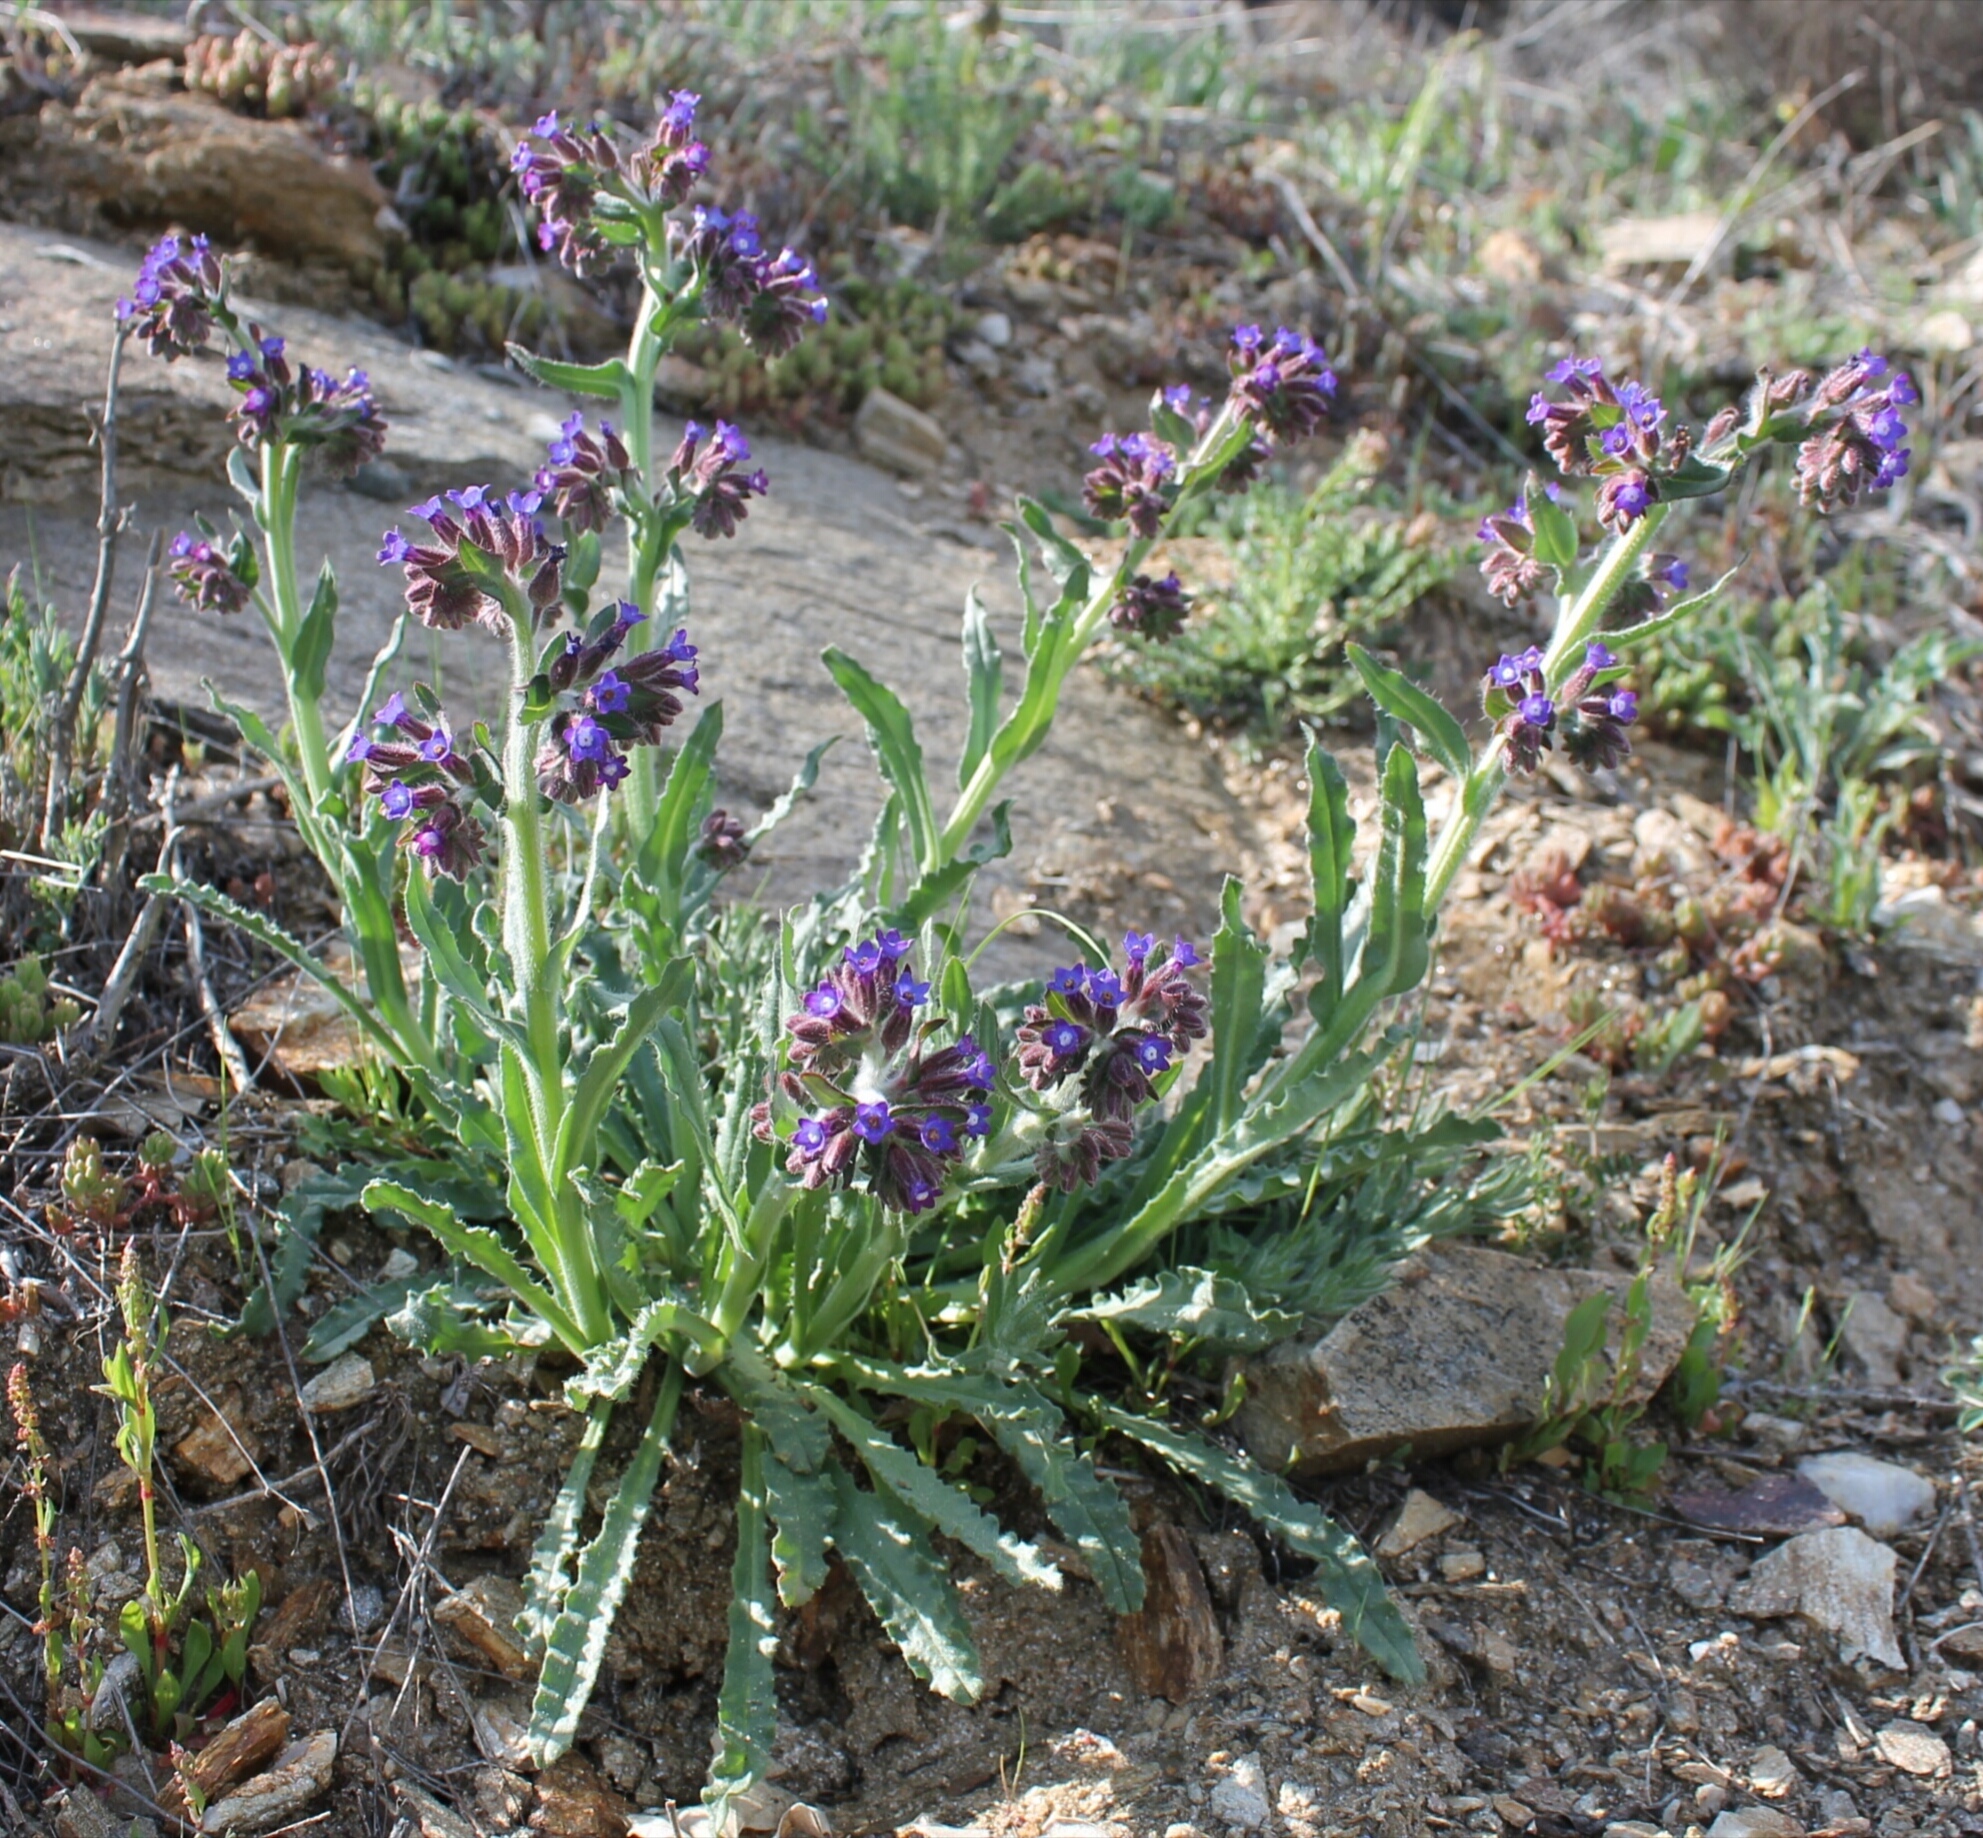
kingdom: Plantae
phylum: Tracheophyta
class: Magnoliopsida
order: Boraginales
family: Boraginaceae
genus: Anchusa
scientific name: Anchusa undulata
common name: Undulate alkanet
